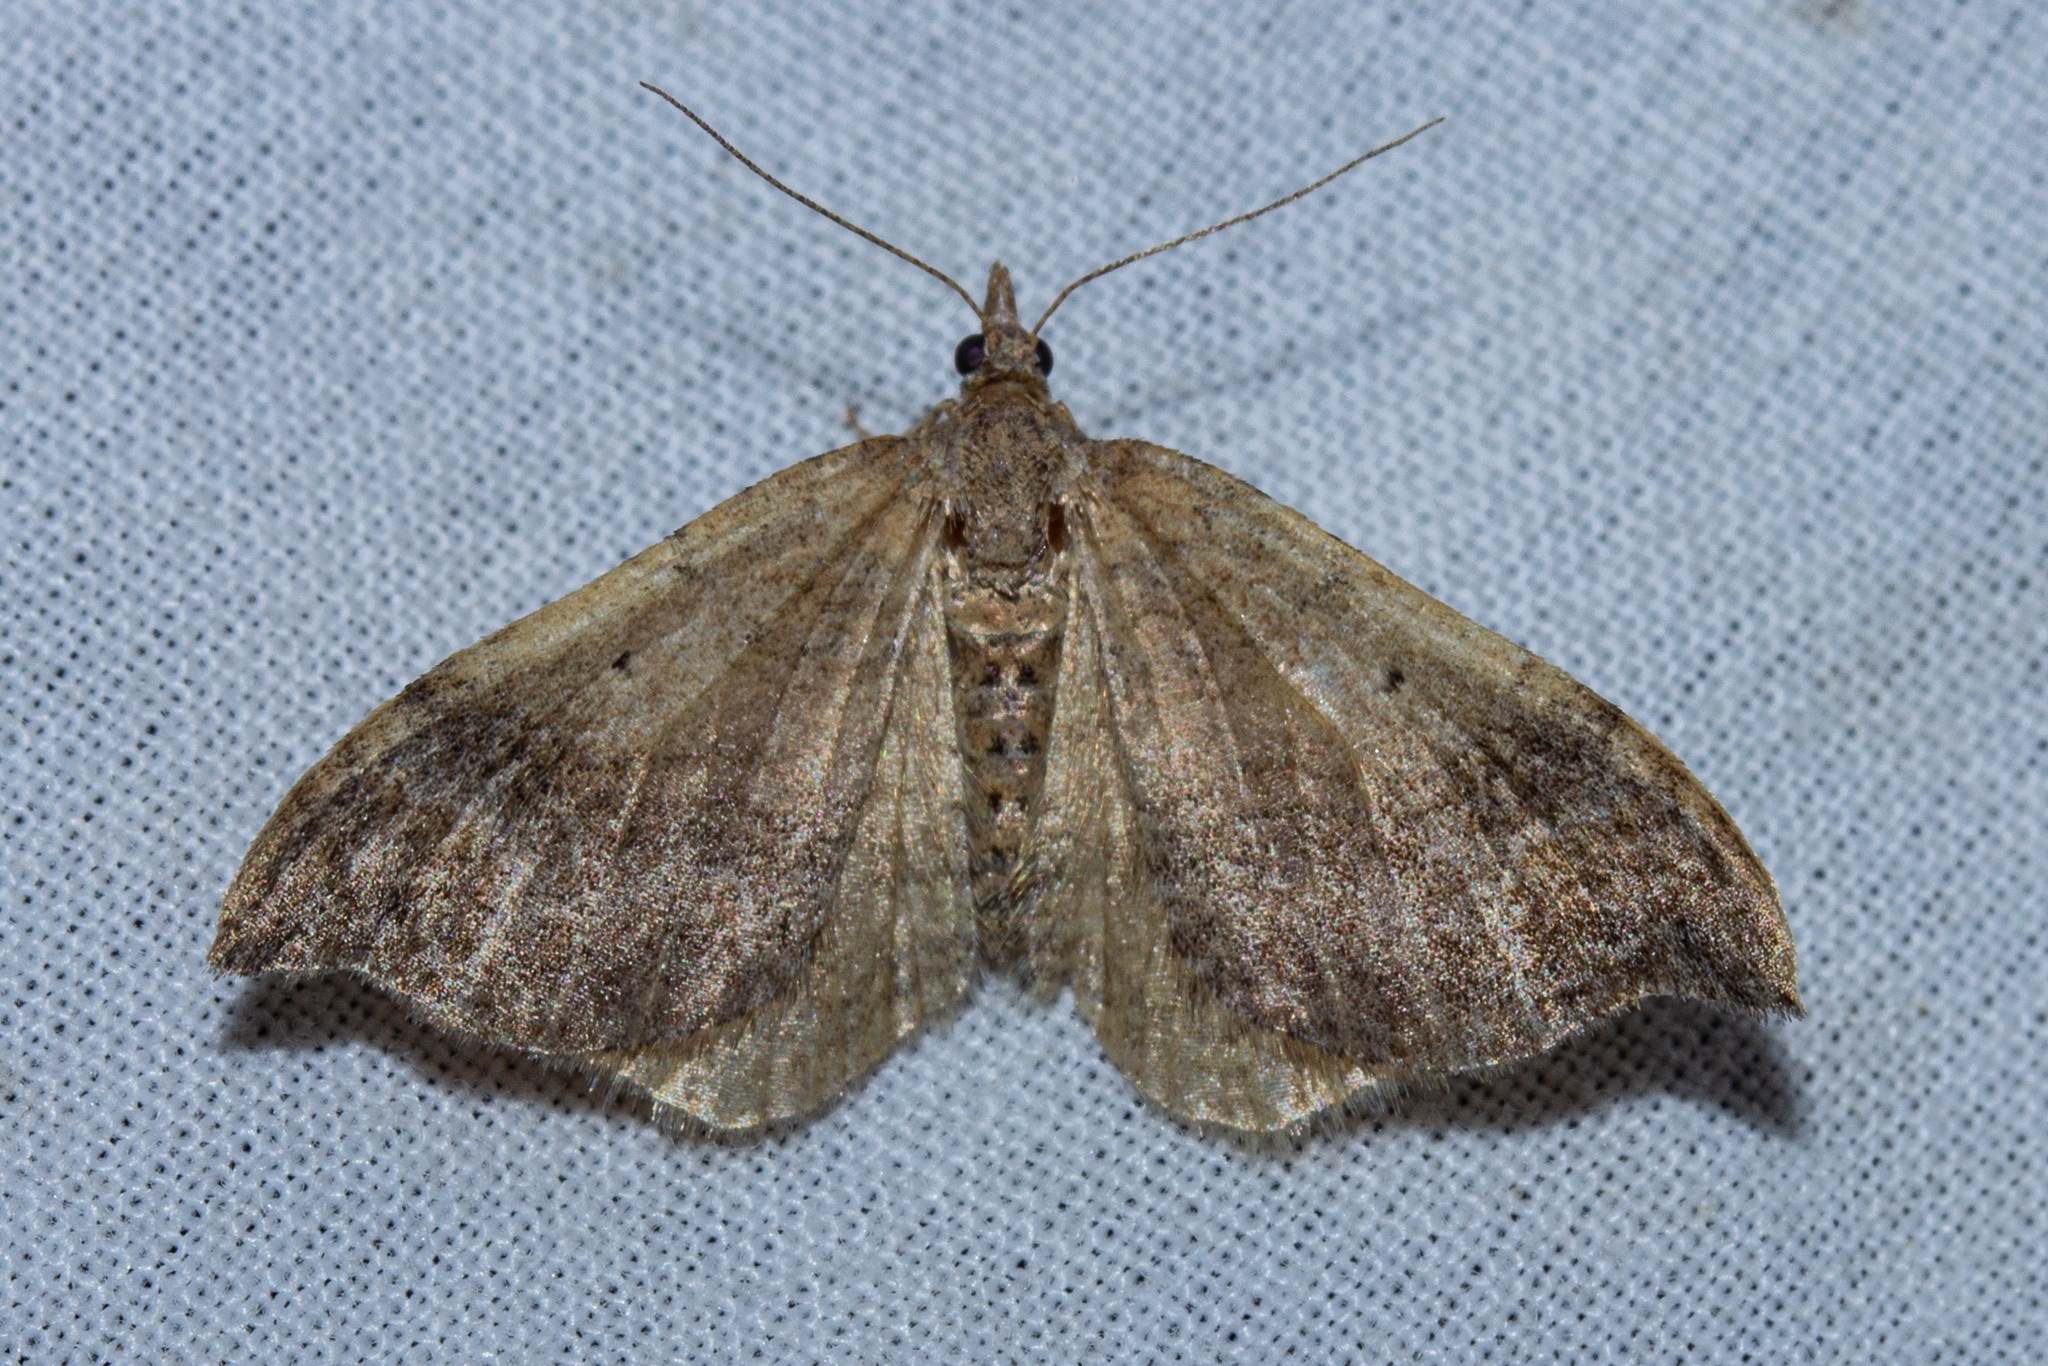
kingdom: Animalia
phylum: Arthropoda
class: Insecta
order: Lepidoptera
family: Geometridae
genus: Homodotis
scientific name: Homodotis megaspilata
